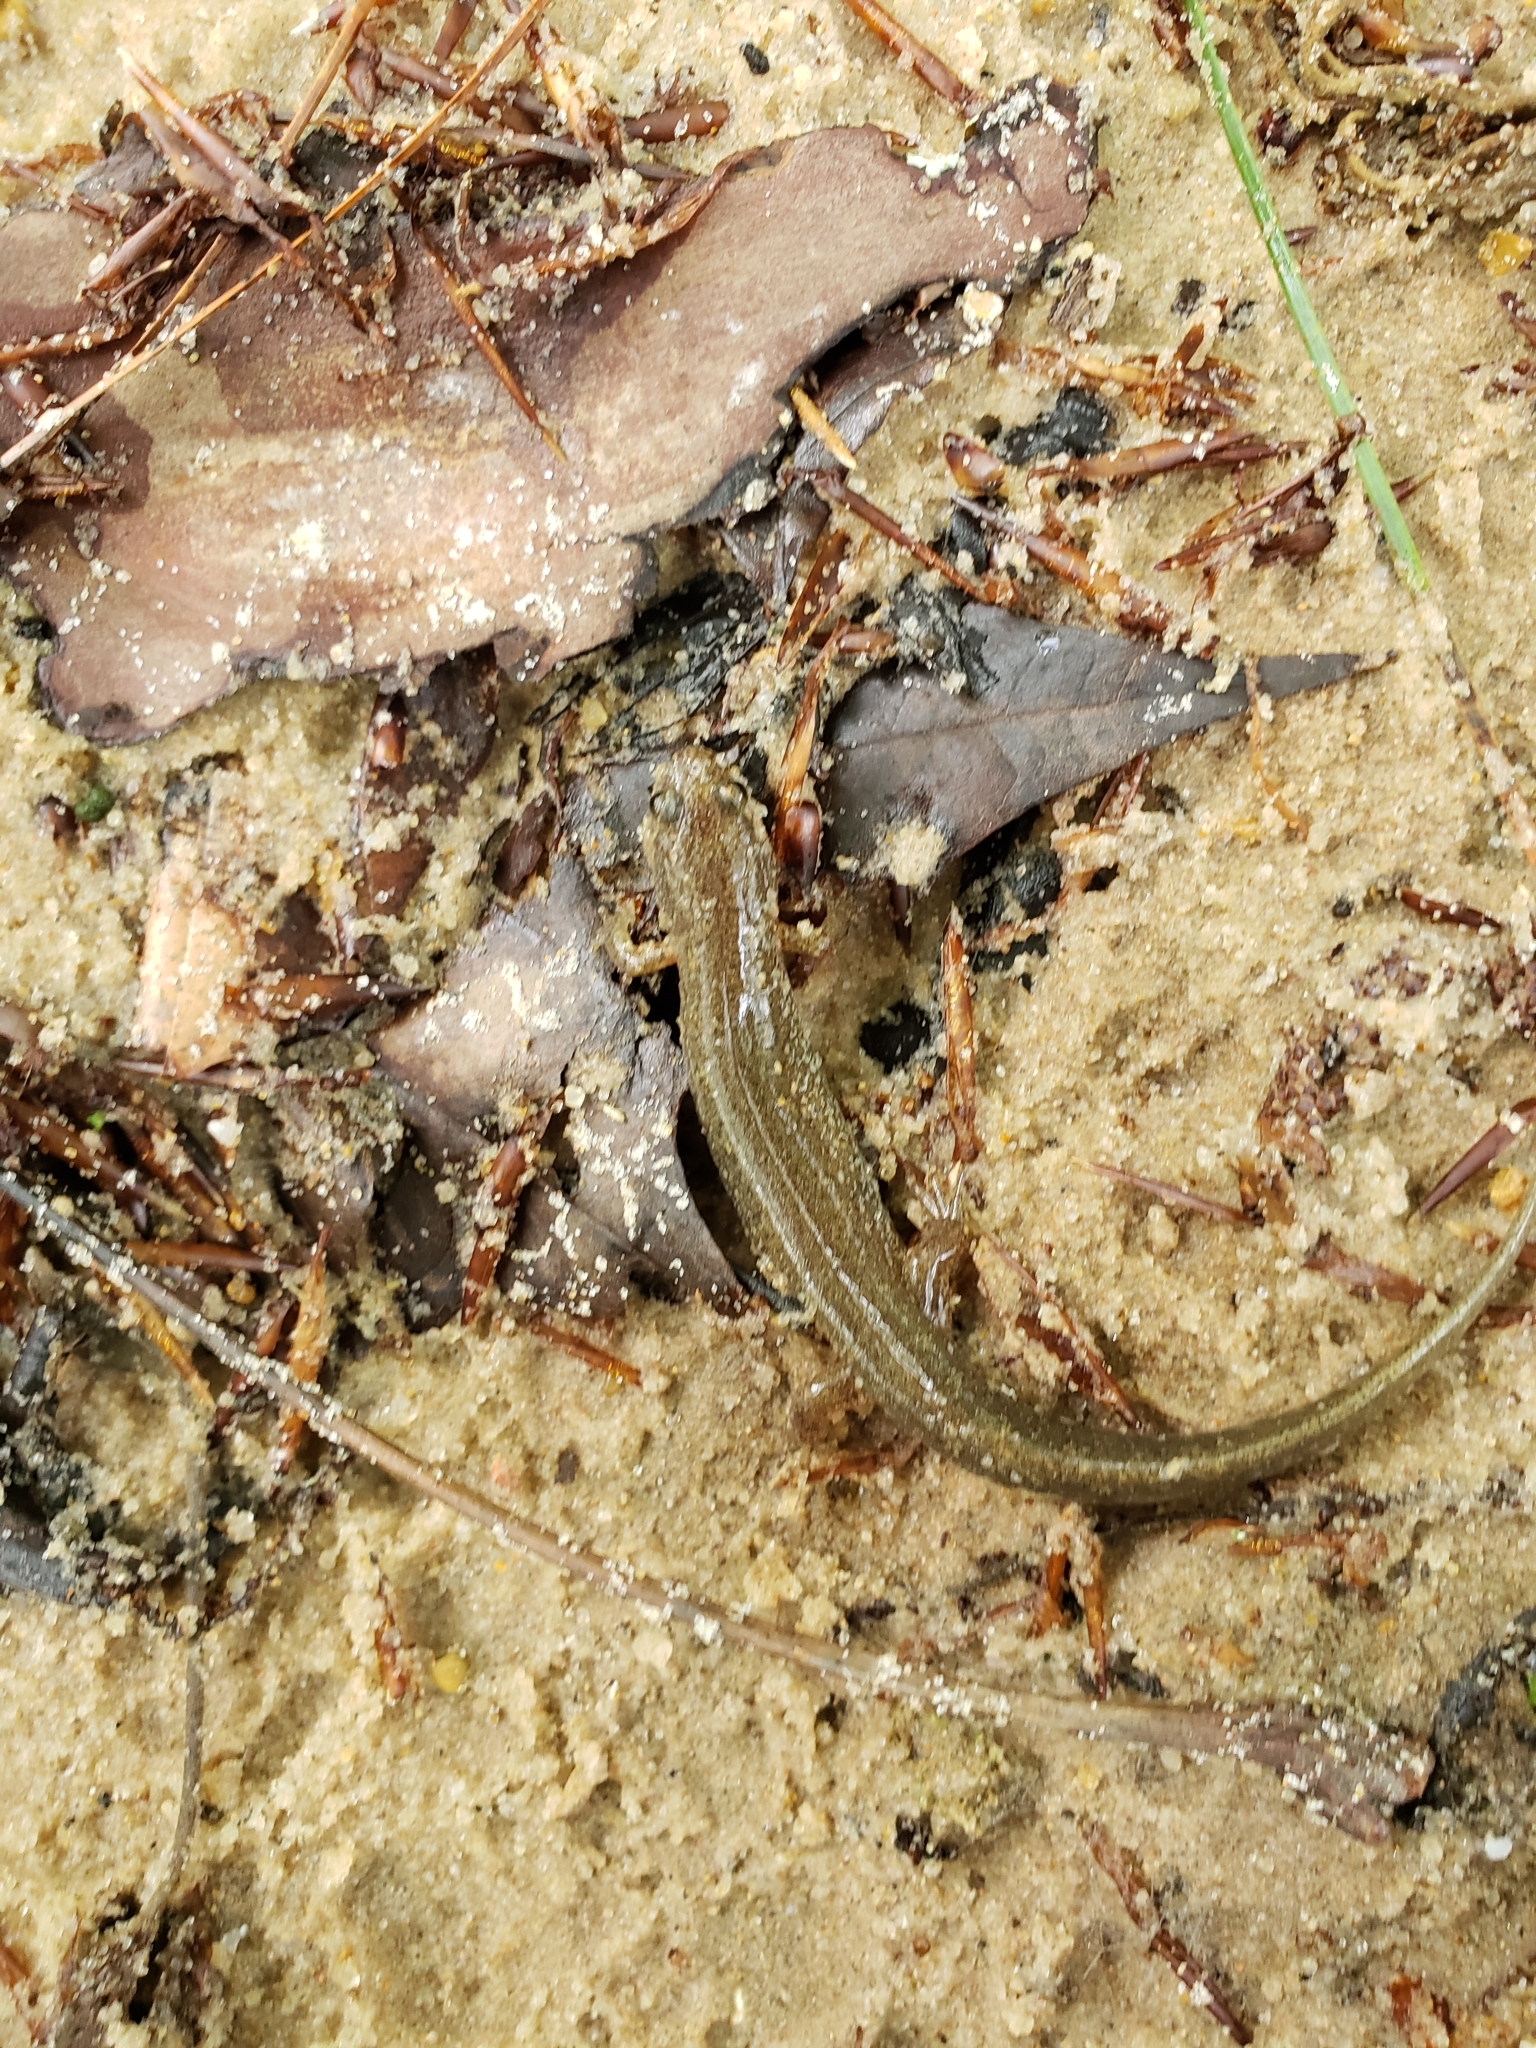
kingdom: Animalia
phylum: Chordata
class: Amphibia
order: Caudata
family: Plethodontidae
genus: Desmognathus
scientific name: Desmognathus conanti
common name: Spotted dusky salamander
